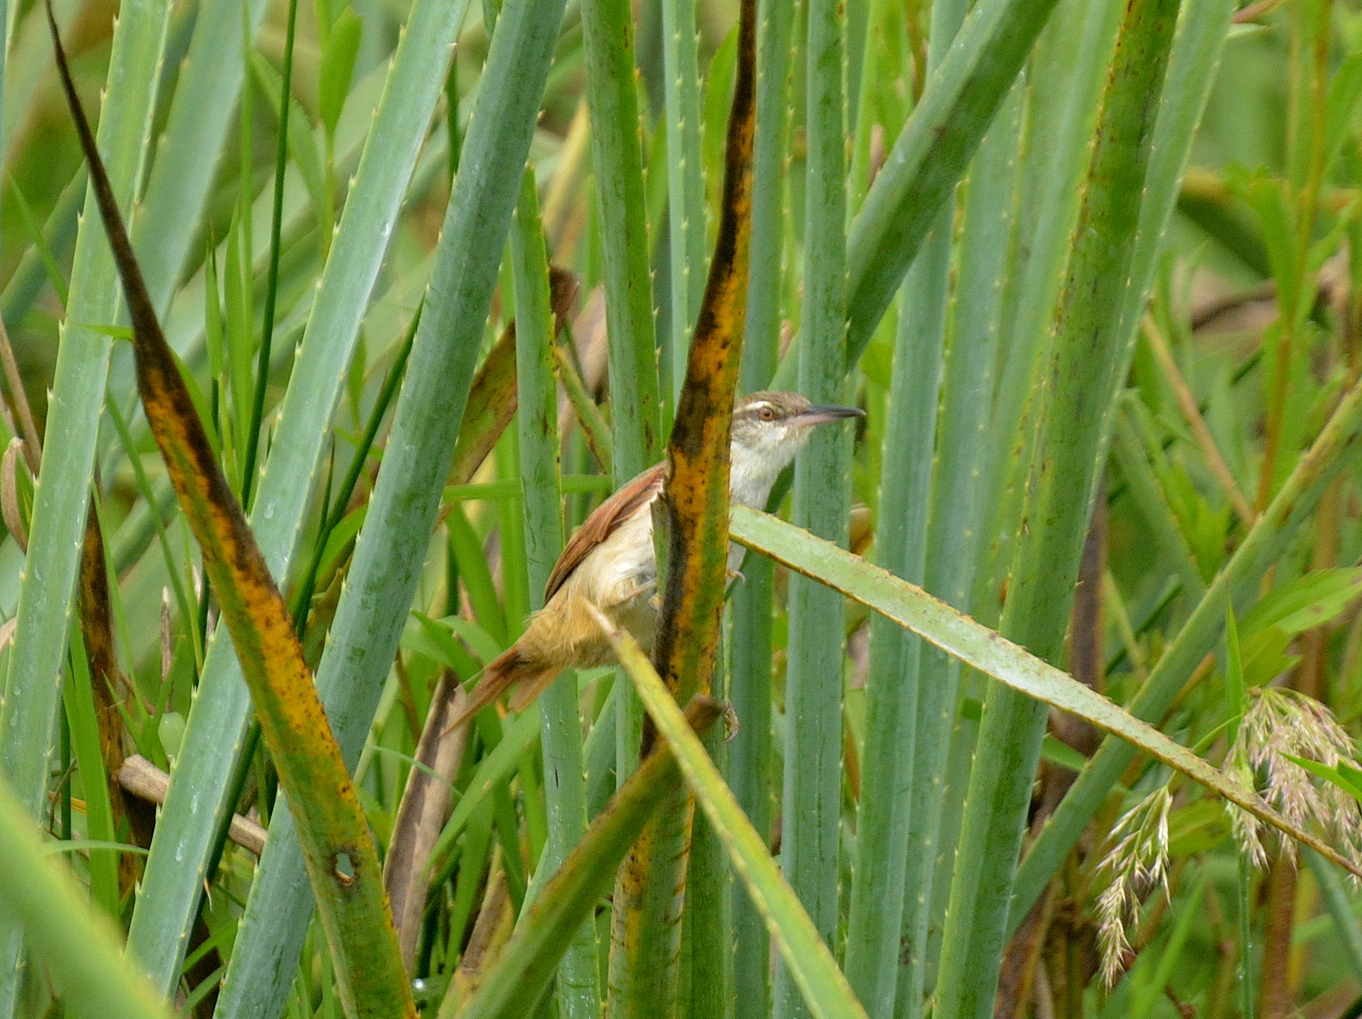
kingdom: Animalia
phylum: Chordata
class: Aves
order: Passeriformes
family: Furnariidae
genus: Limnornis
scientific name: Limnornis rectirostris
